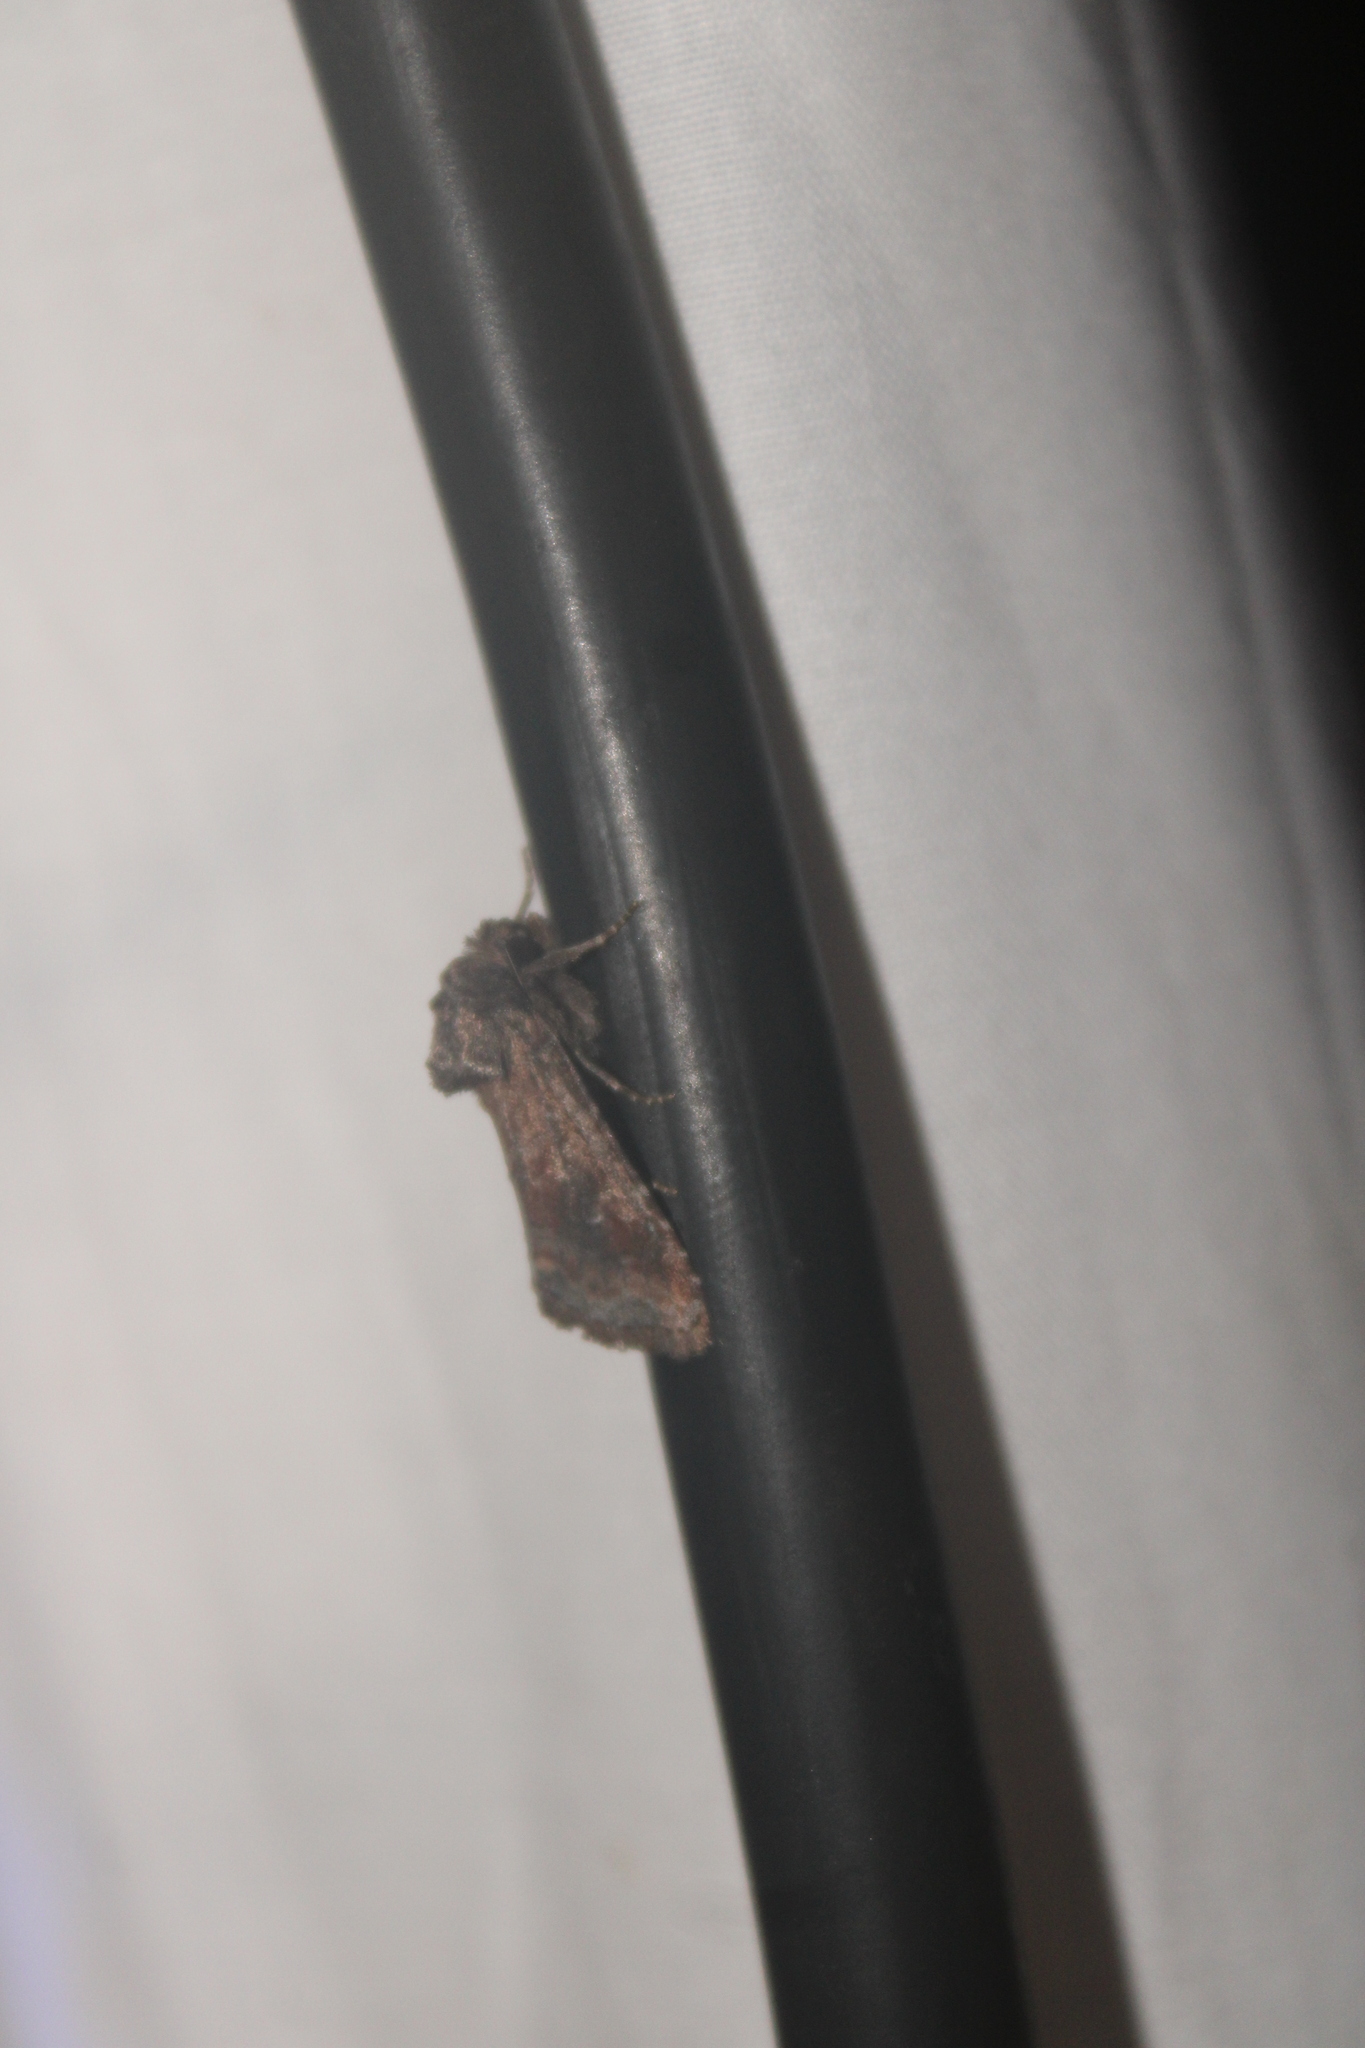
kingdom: Animalia
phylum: Arthropoda
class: Insecta
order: Lepidoptera
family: Noctuidae
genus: Lacinipolia
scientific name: Lacinipolia meditata
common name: Thinker moth
